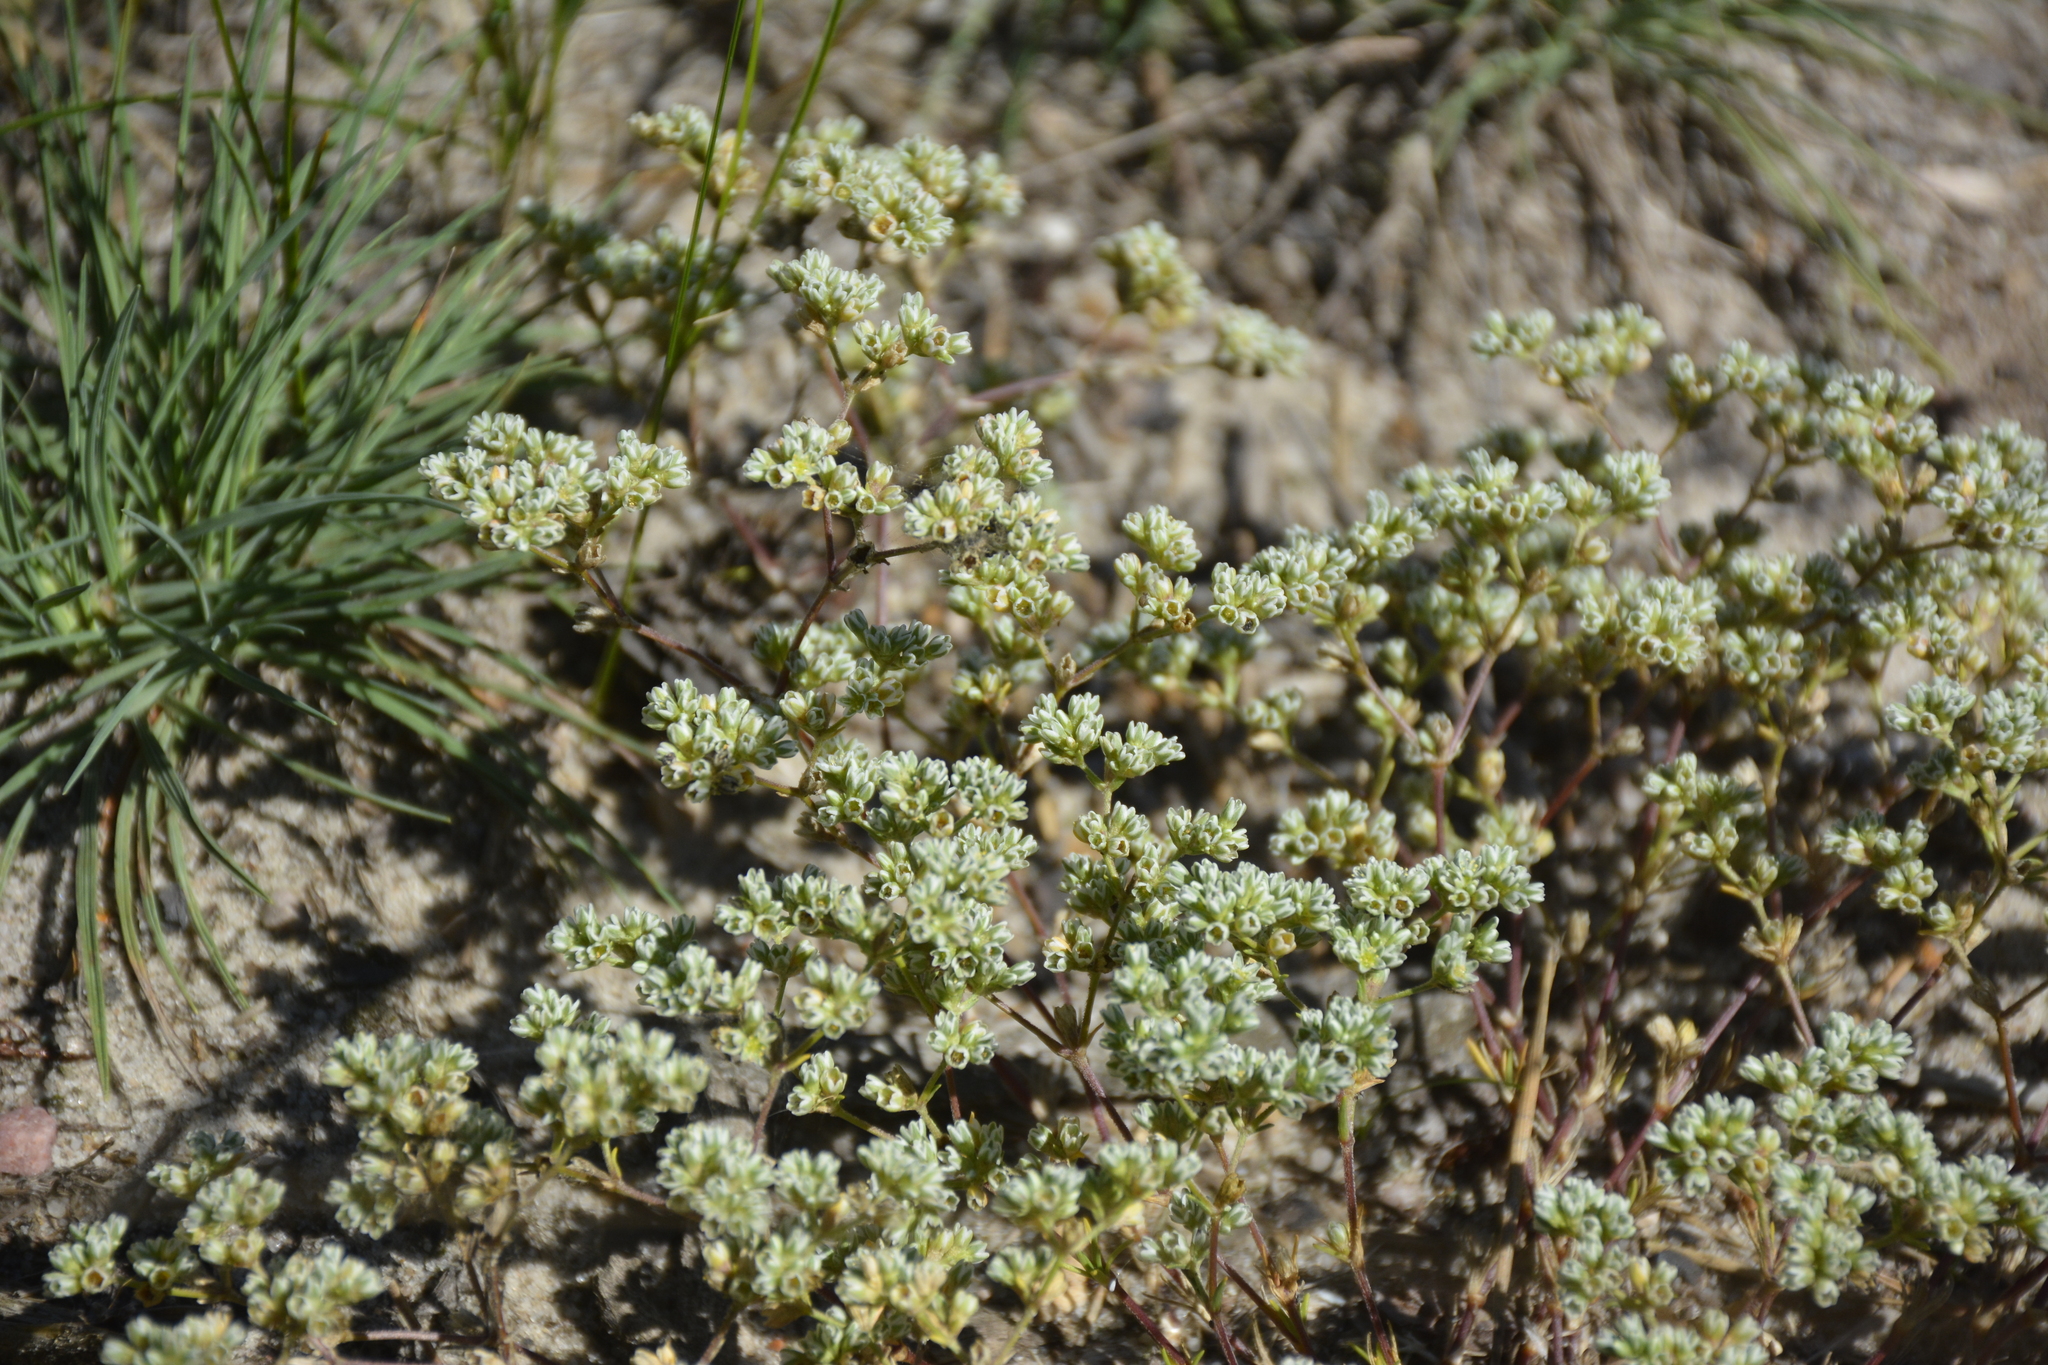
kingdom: Plantae
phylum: Tracheophyta
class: Magnoliopsida
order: Caryophyllales
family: Caryophyllaceae
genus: Scleranthus
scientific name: Scleranthus perennis
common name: Perennial knawel
